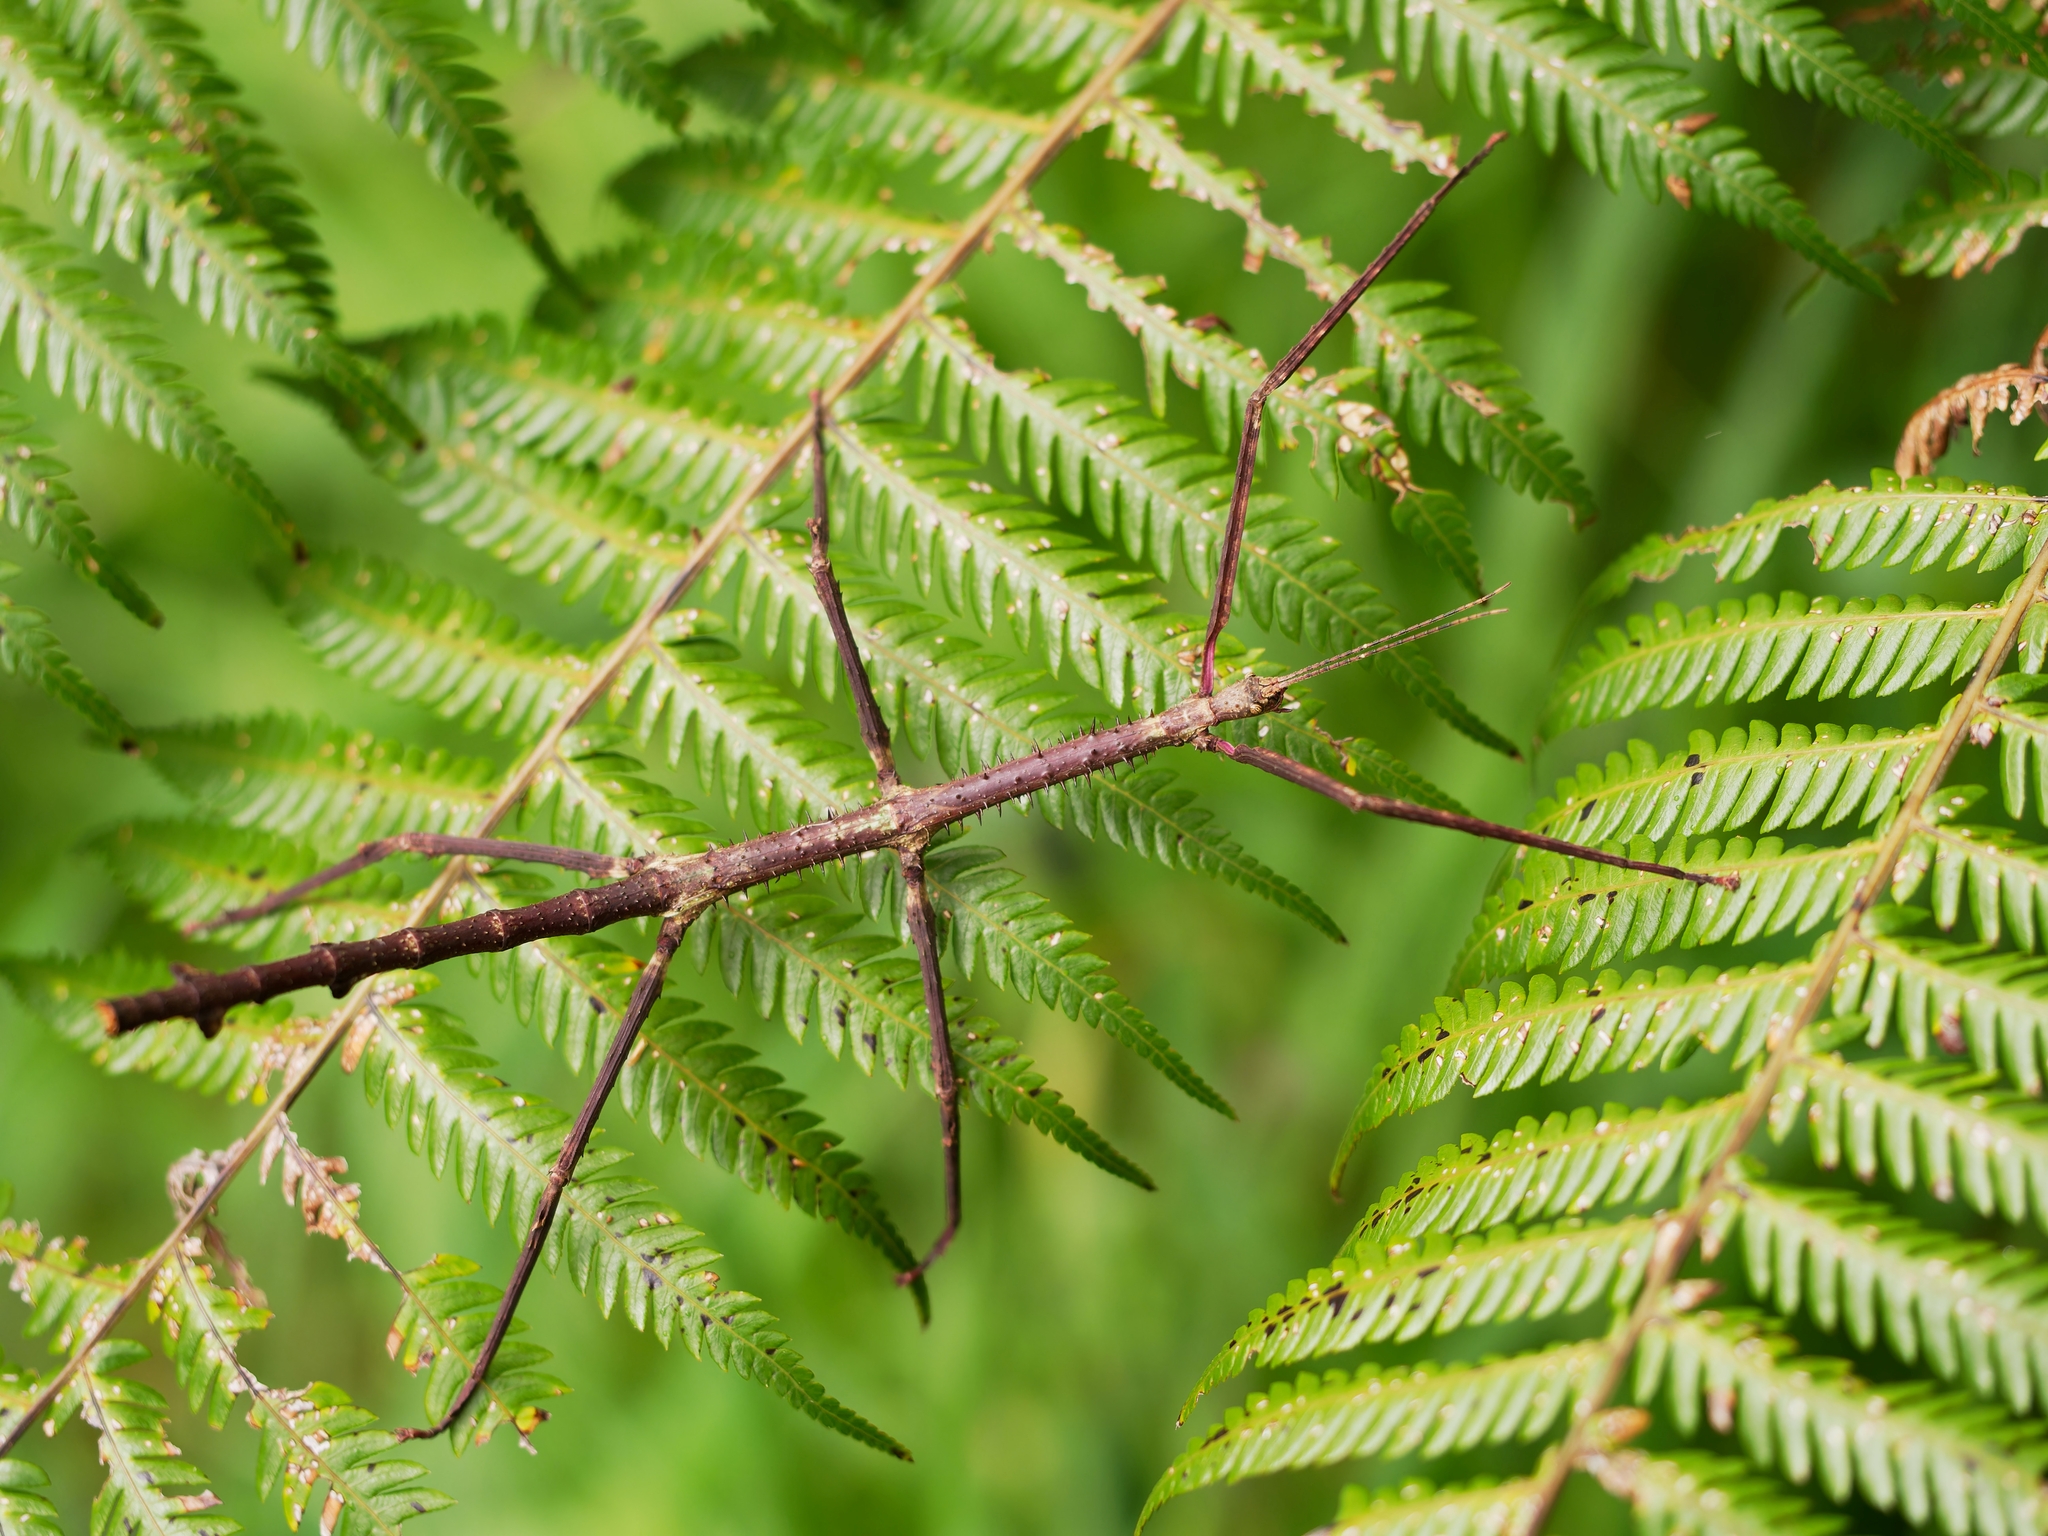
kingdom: Animalia
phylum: Arthropoda
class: Insecta
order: Phasmida
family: Phasmatidae
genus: Argosarchus
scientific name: Argosarchus horridus
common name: Bristly stick insect
